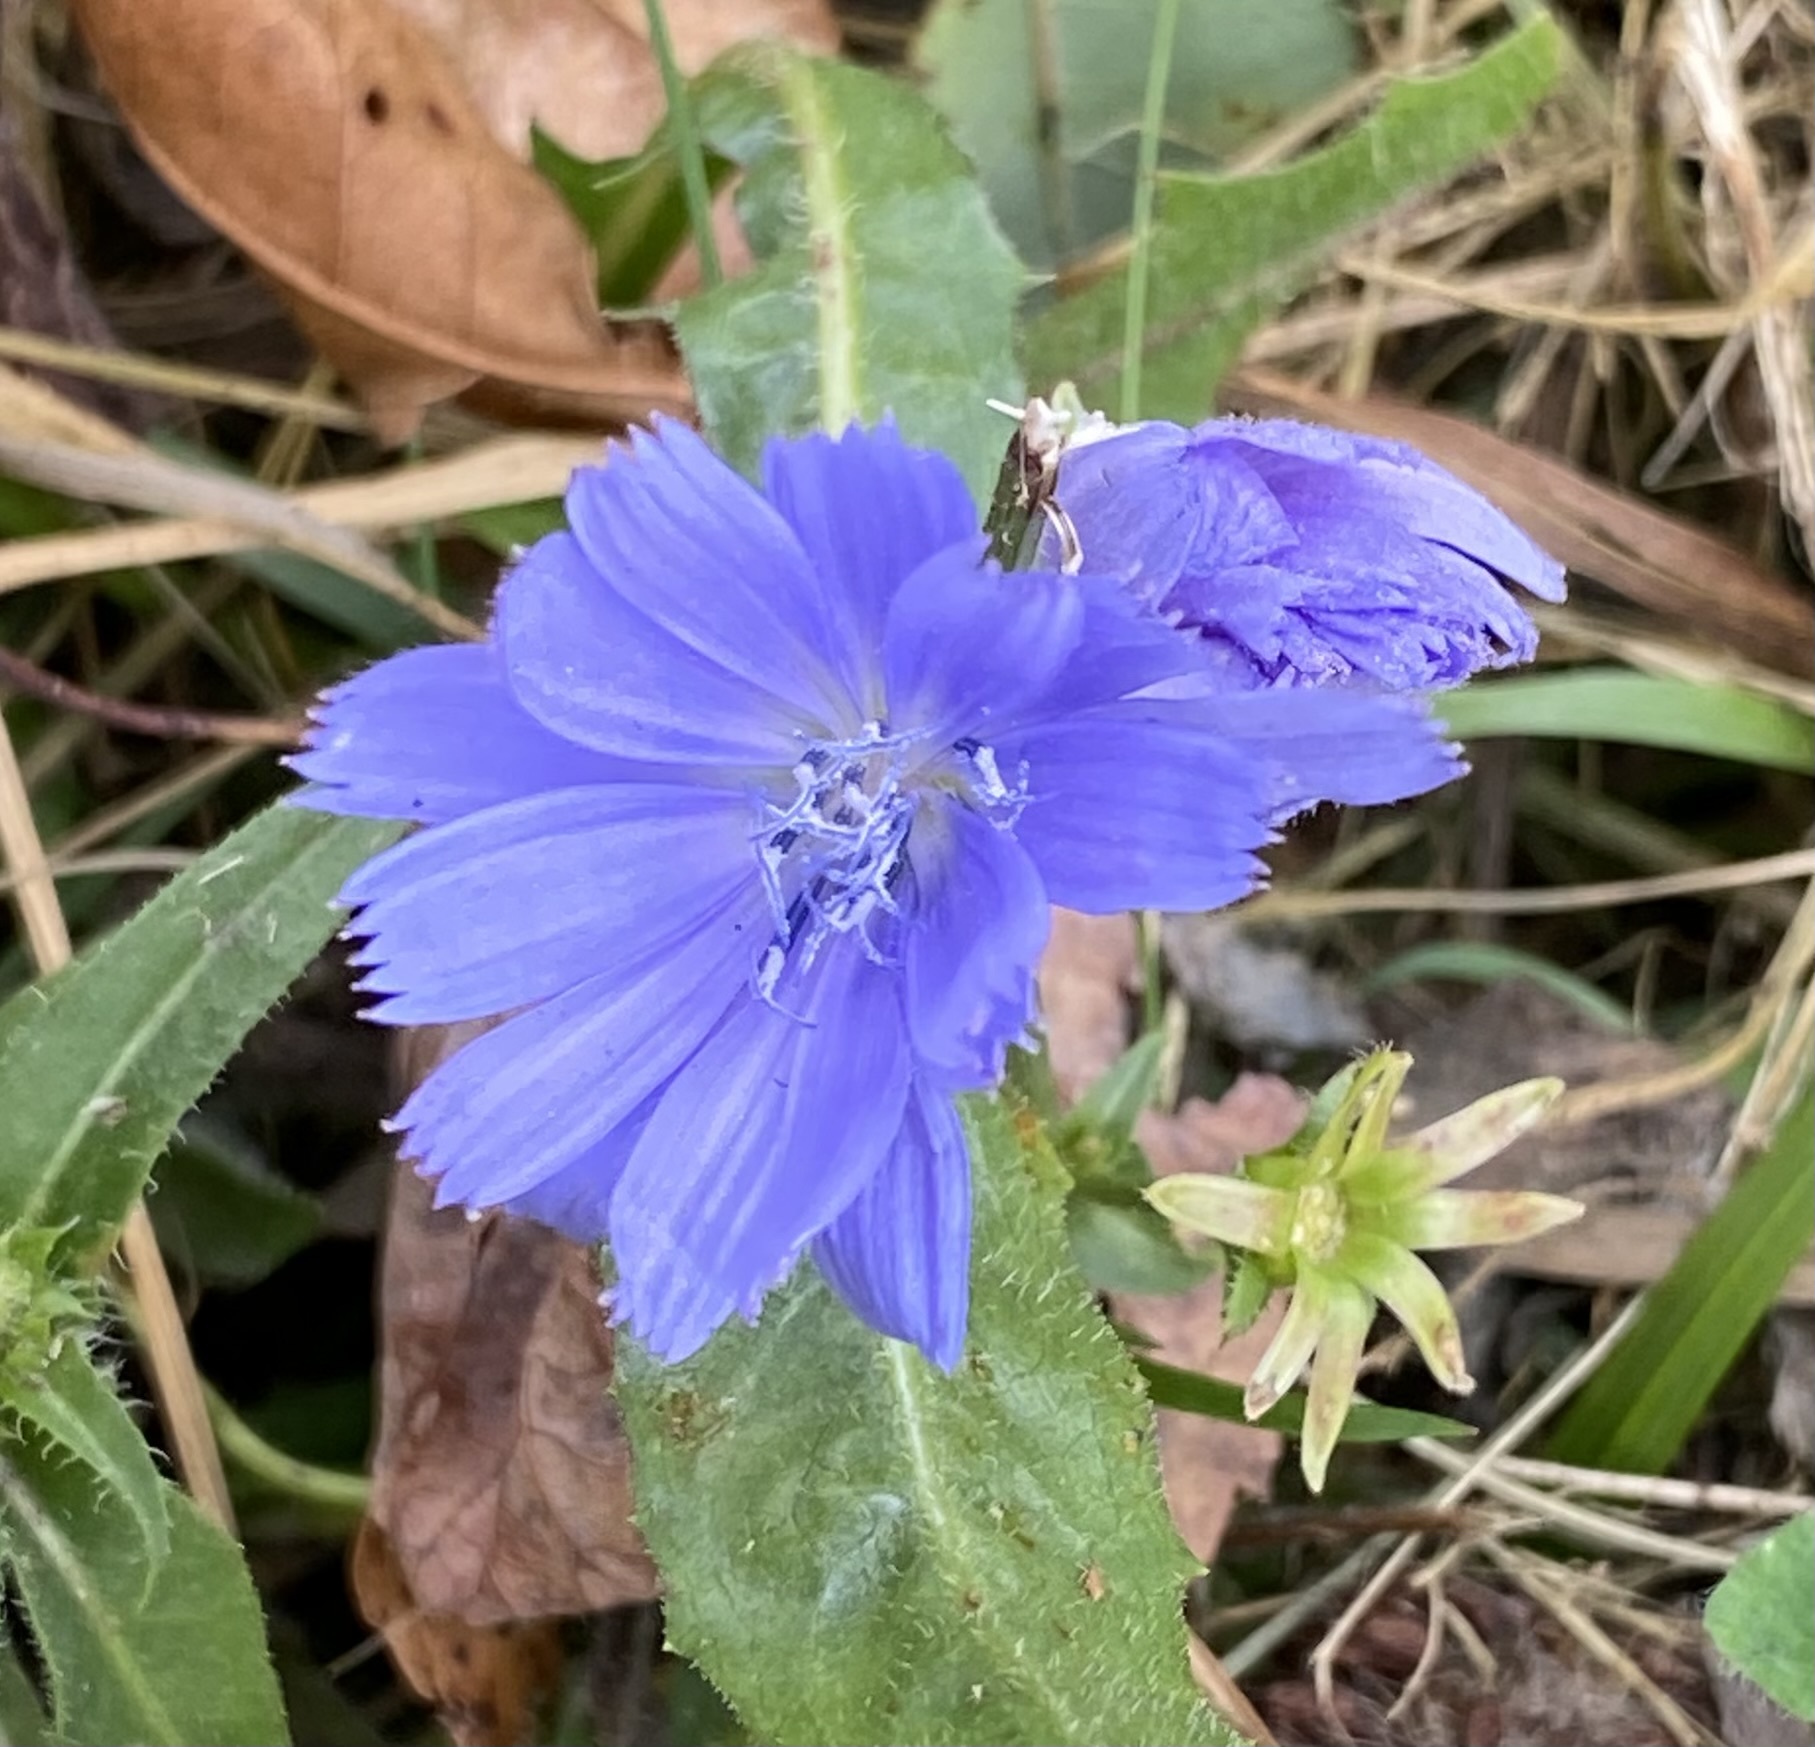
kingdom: Plantae
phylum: Tracheophyta
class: Magnoliopsida
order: Asterales
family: Asteraceae
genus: Cichorium
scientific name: Cichorium intybus
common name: Chicory
